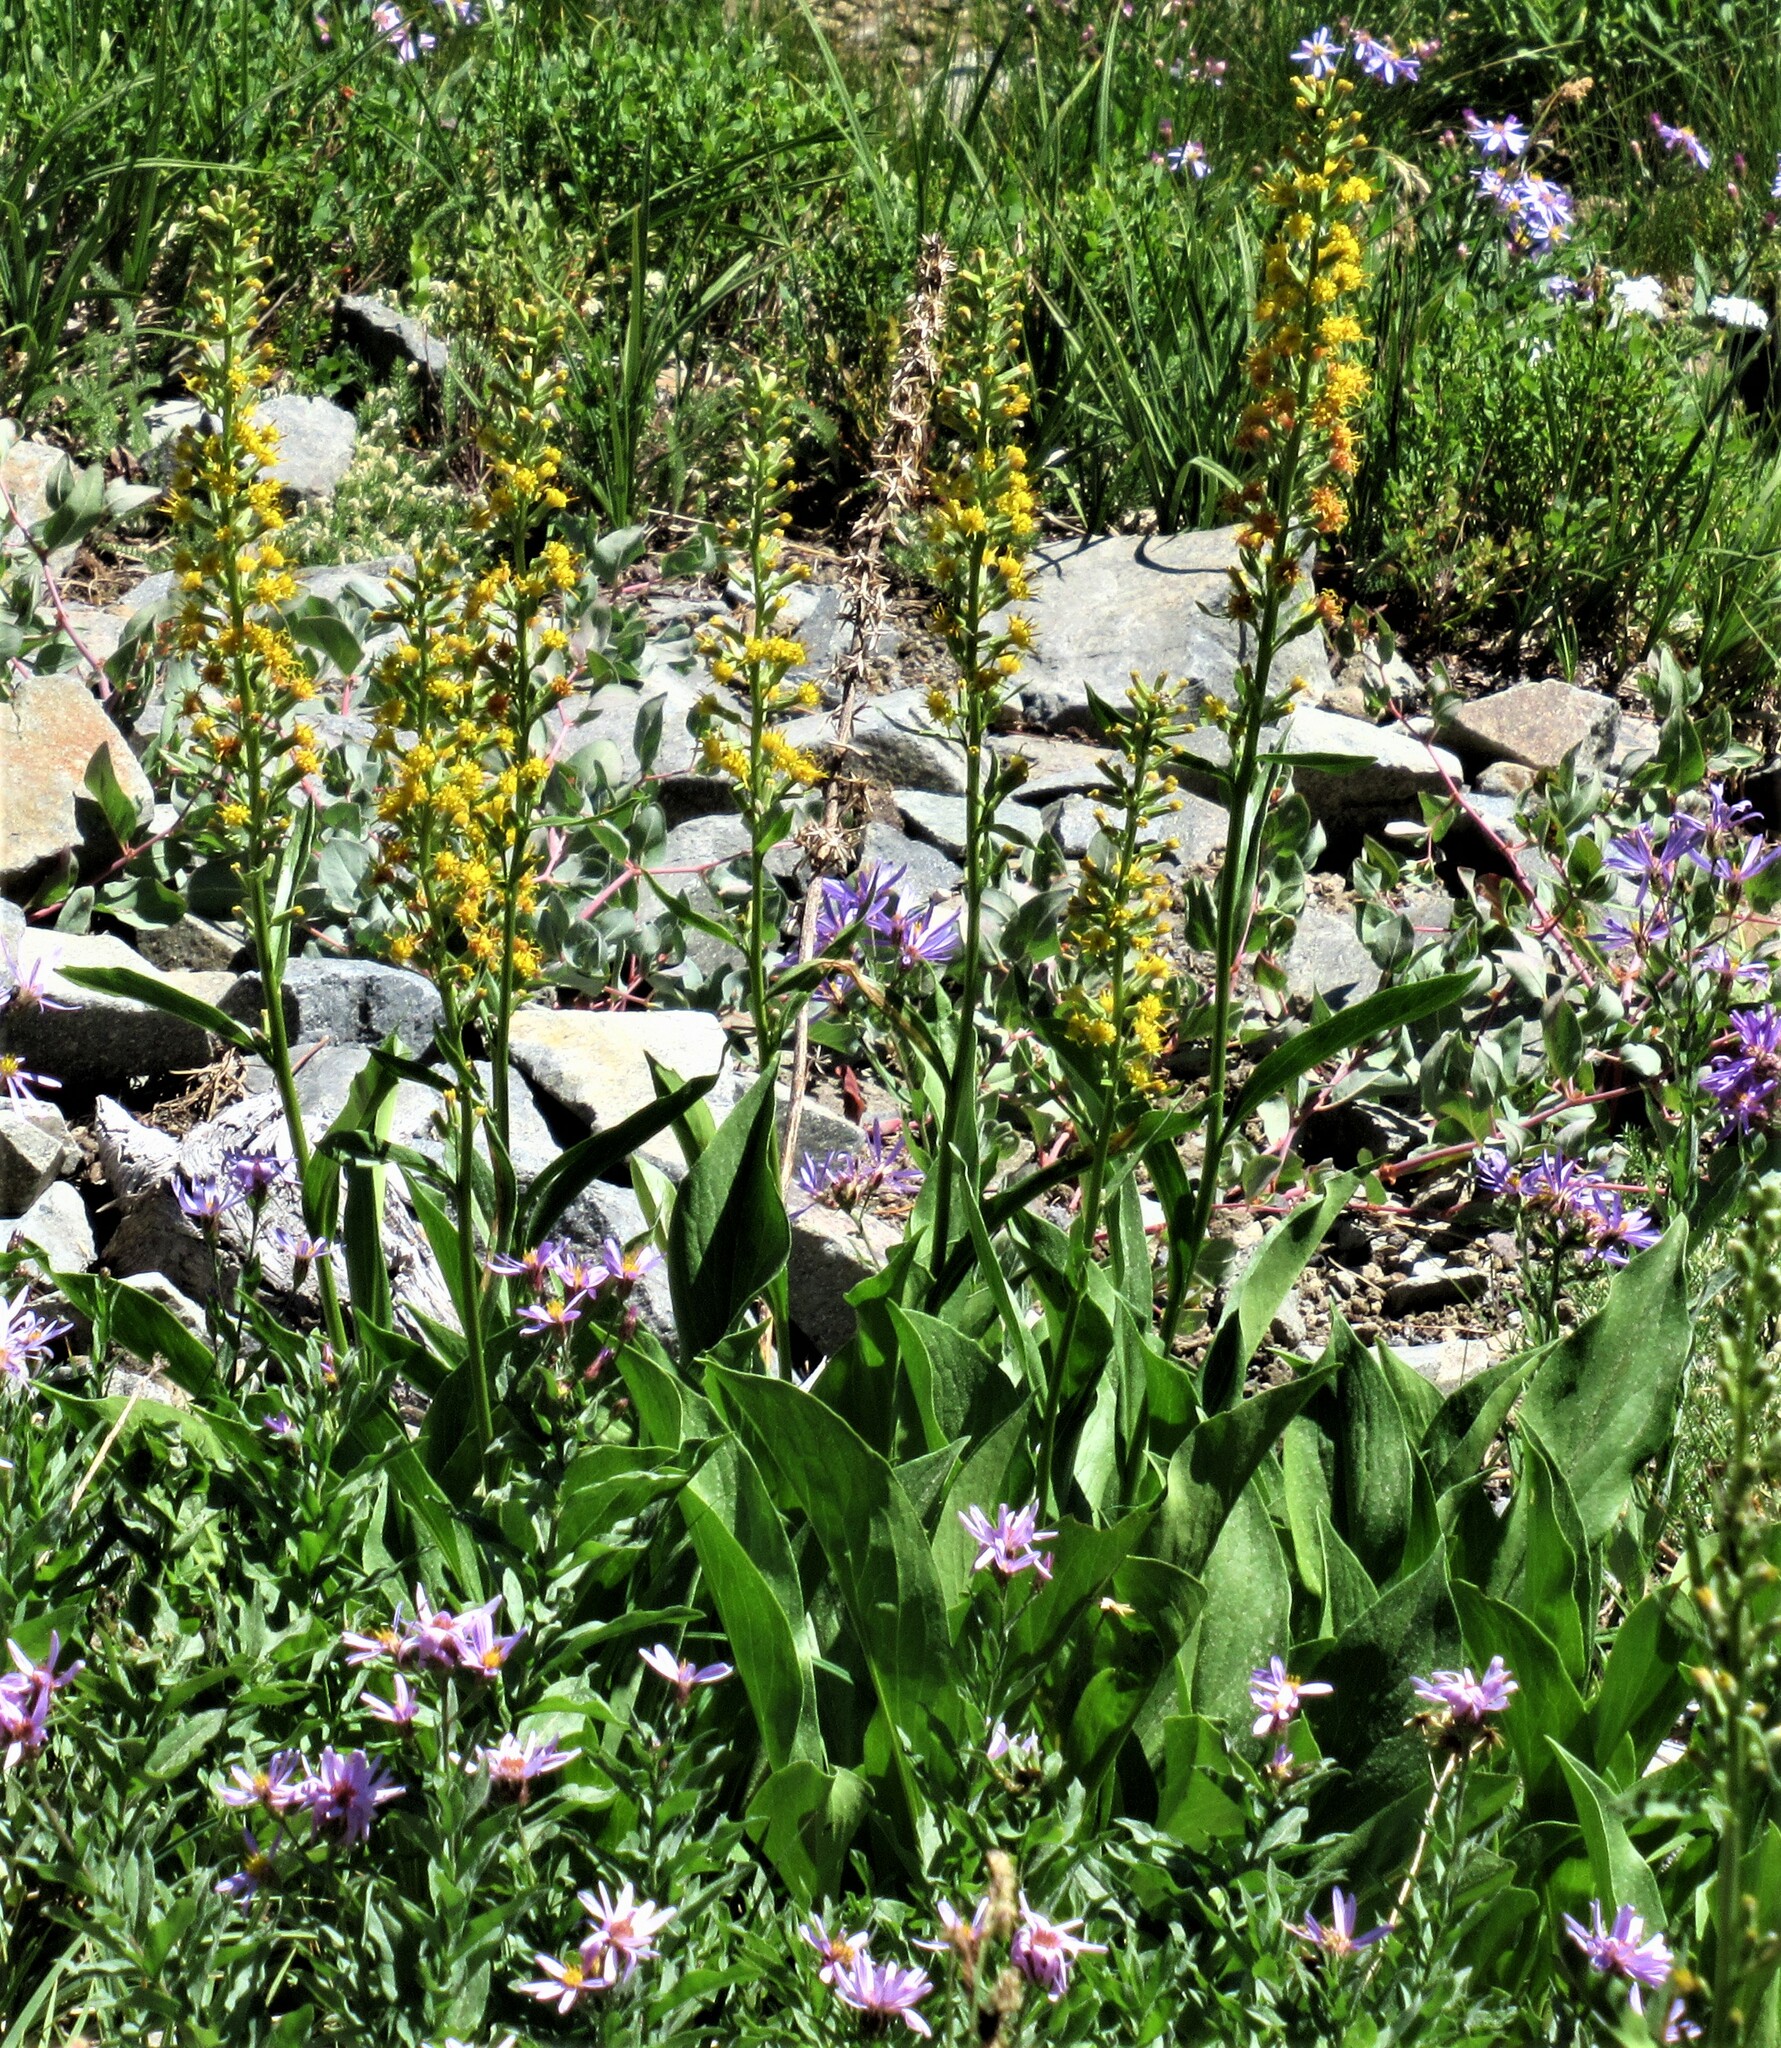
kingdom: Plantae
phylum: Tracheophyta
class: Magnoliopsida
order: Asterales
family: Asteraceae
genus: Rainiera
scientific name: Rainiera stricta
